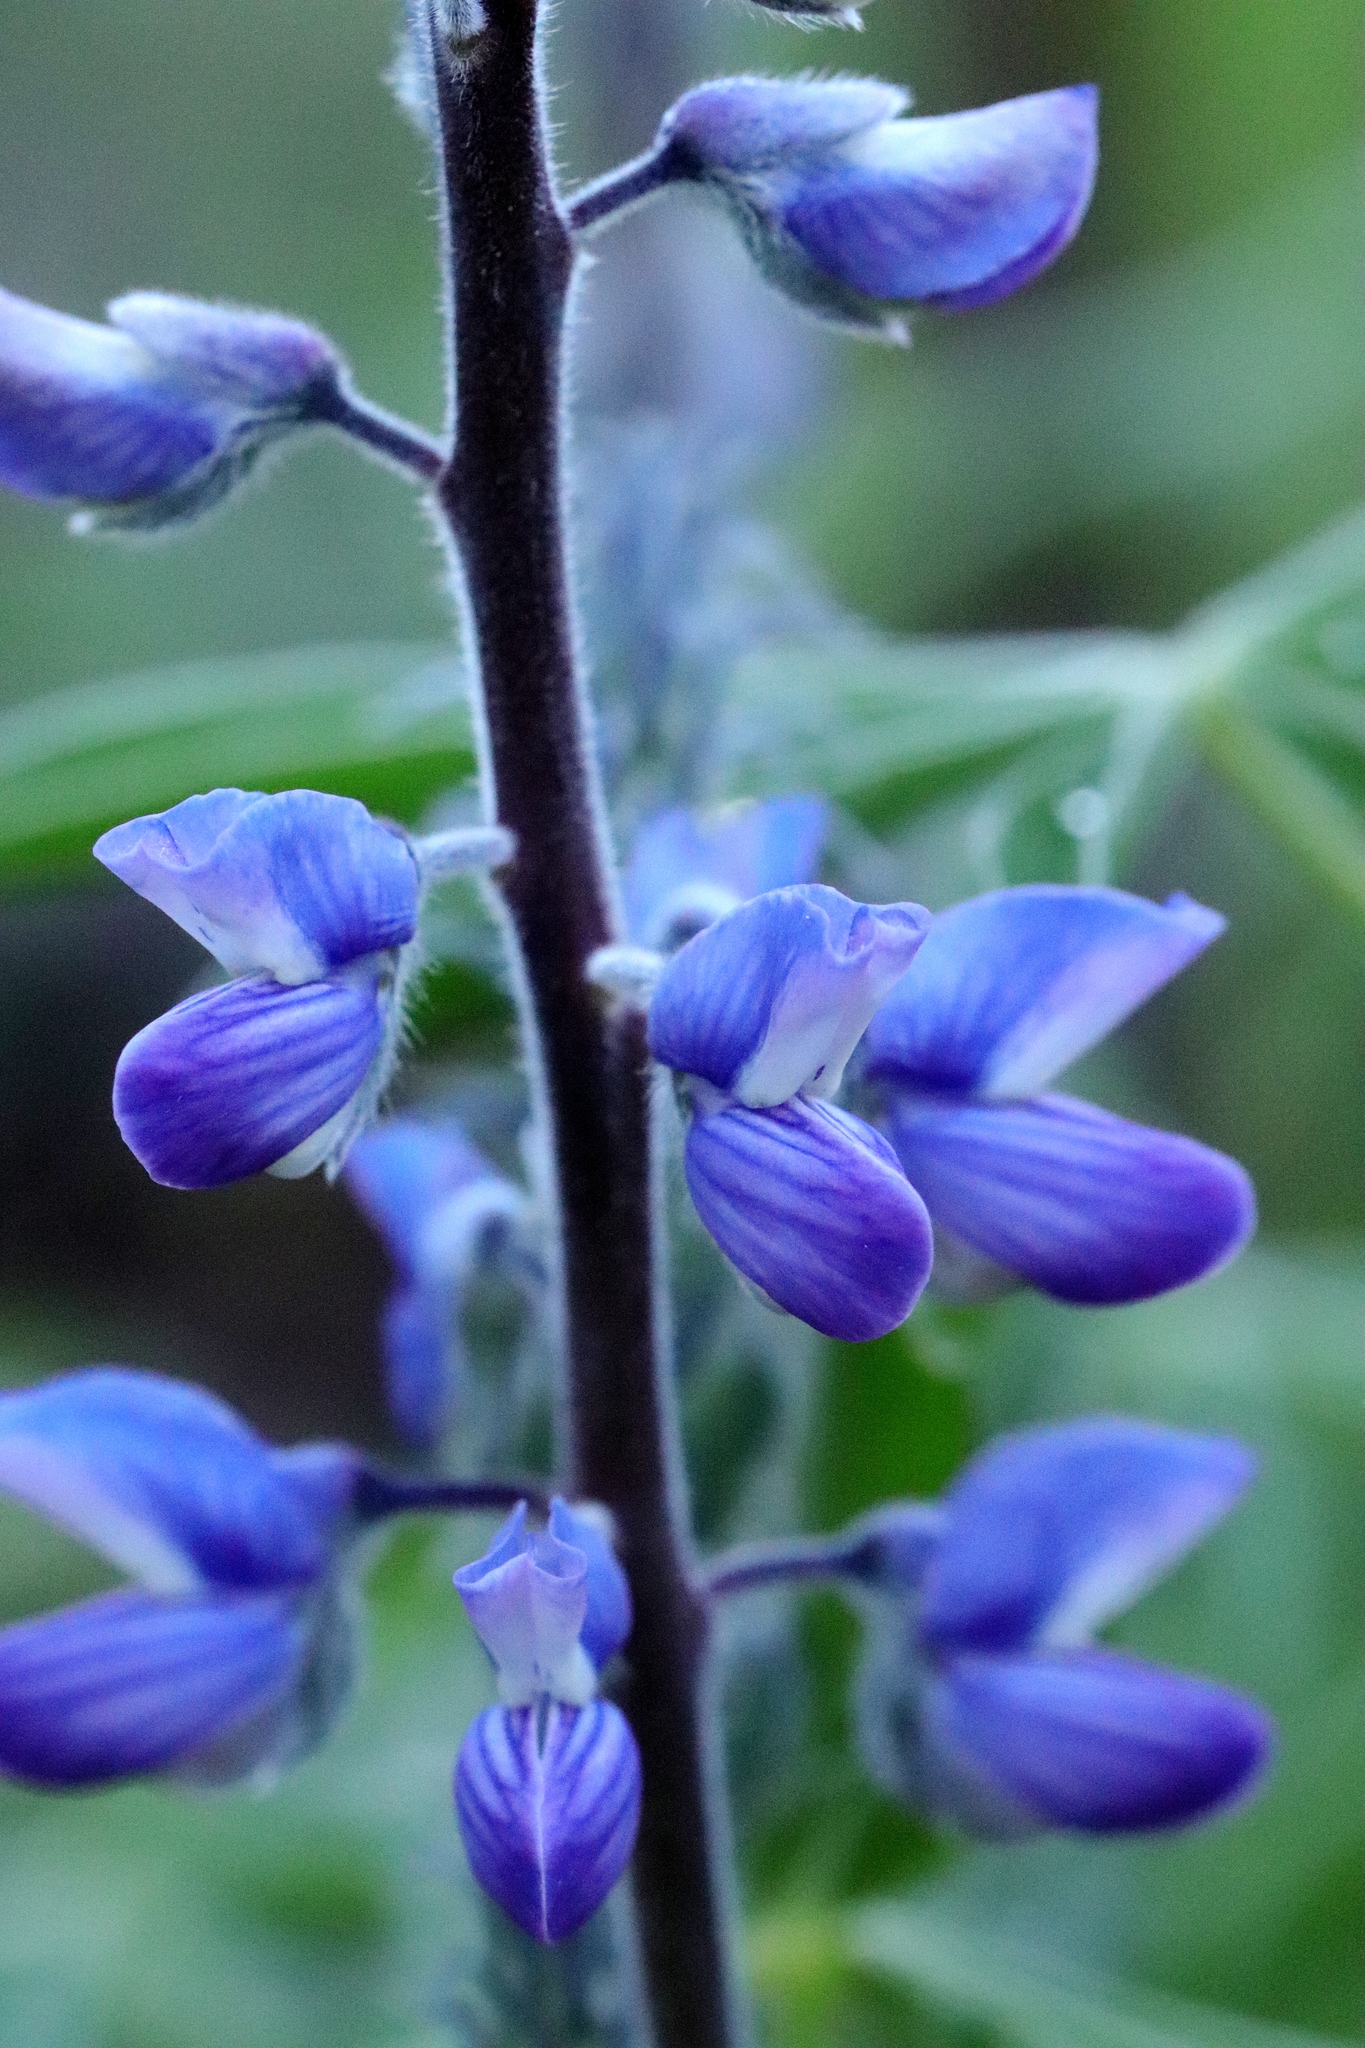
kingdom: Plantae
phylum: Tracheophyta
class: Magnoliopsida
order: Fabales
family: Fabaceae
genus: Lupinus
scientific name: Lupinus sericeus
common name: Silky lupine
